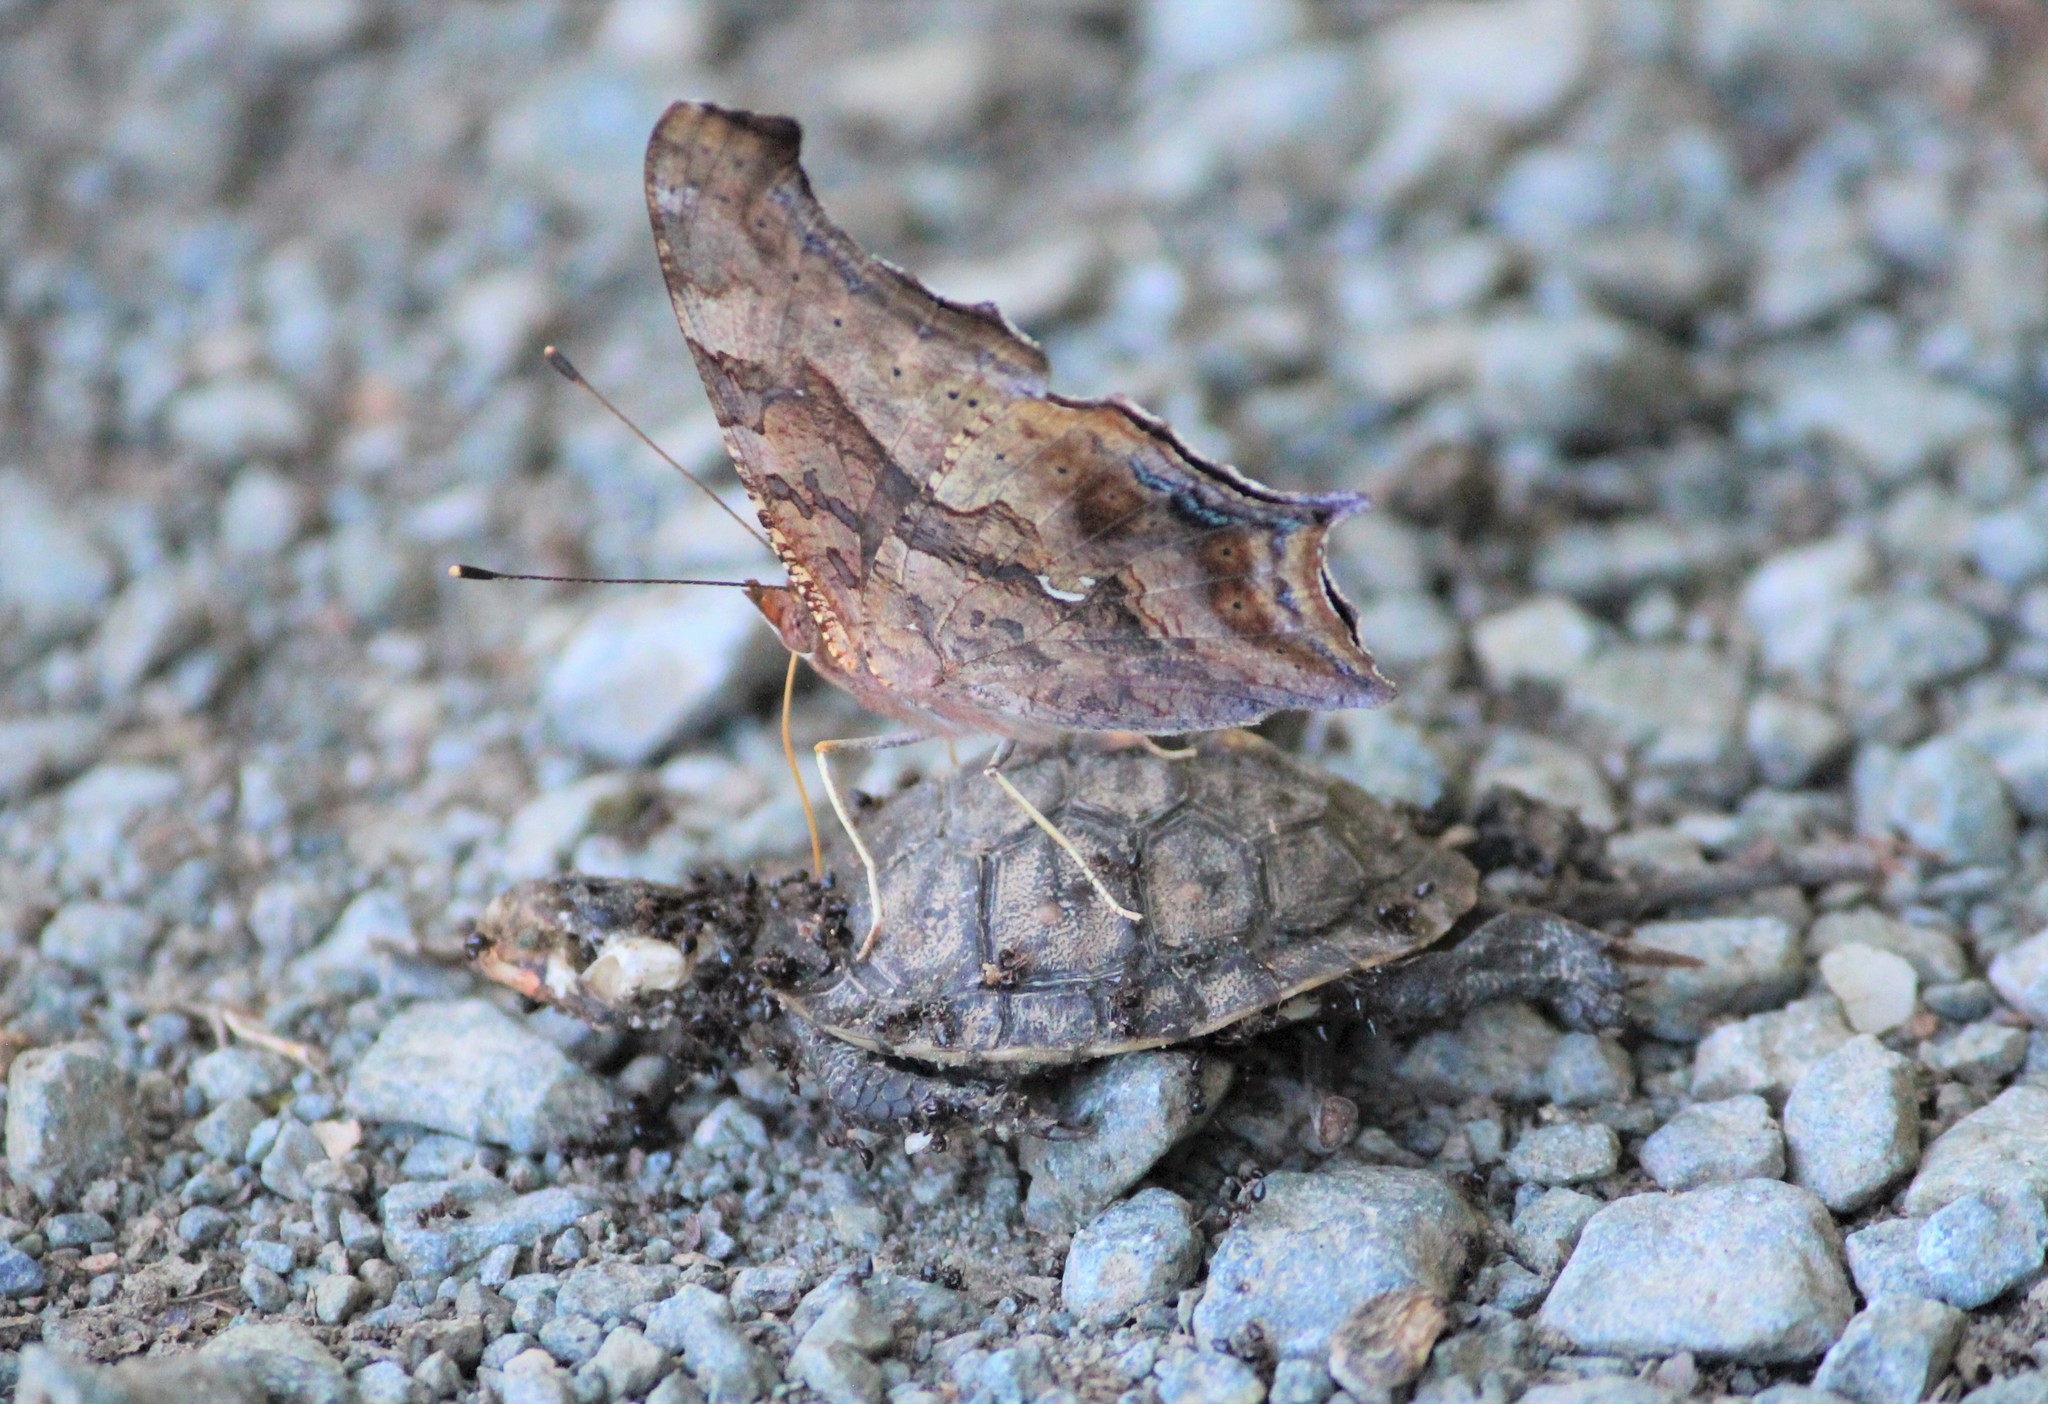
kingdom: Animalia
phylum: Arthropoda
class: Insecta
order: Lepidoptera
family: Nymphalidae
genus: Polygonia
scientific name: Polygonia interrogationis
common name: Question mark
